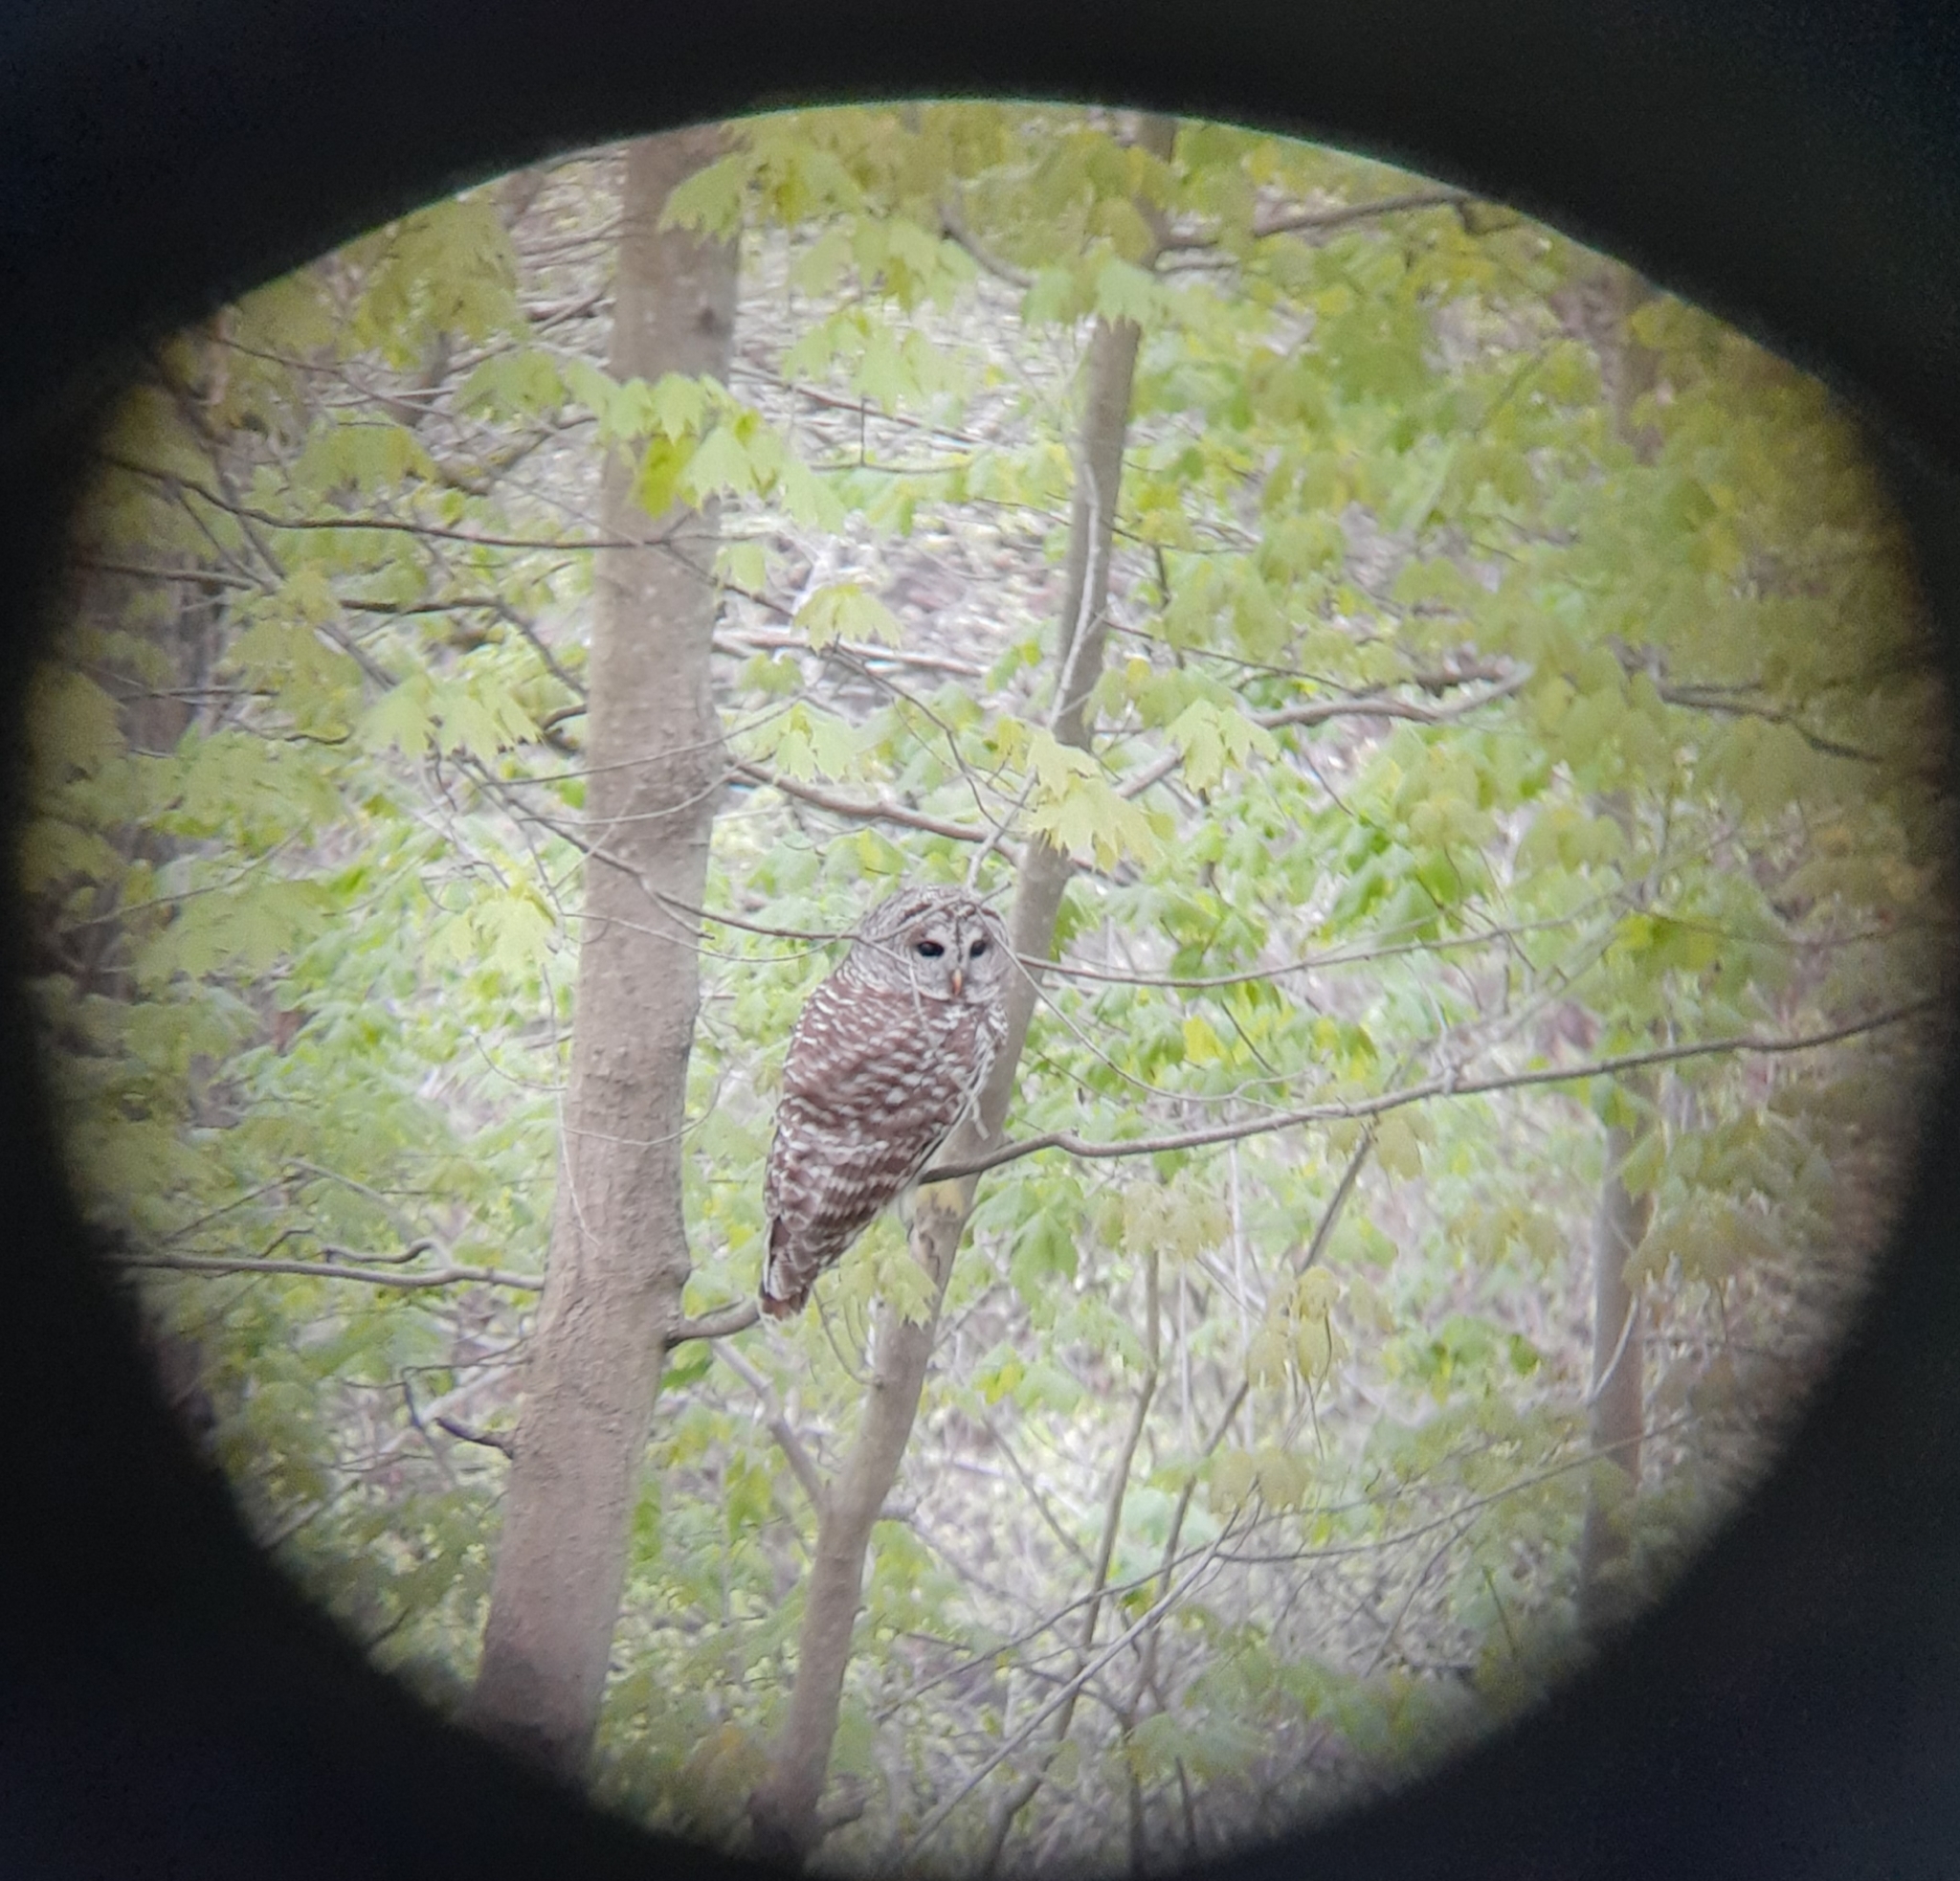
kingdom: Animalia
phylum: Chordata
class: Aves
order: Strigiformes
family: Strigidae
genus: Strix
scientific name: Strix varia
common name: Barred owl
